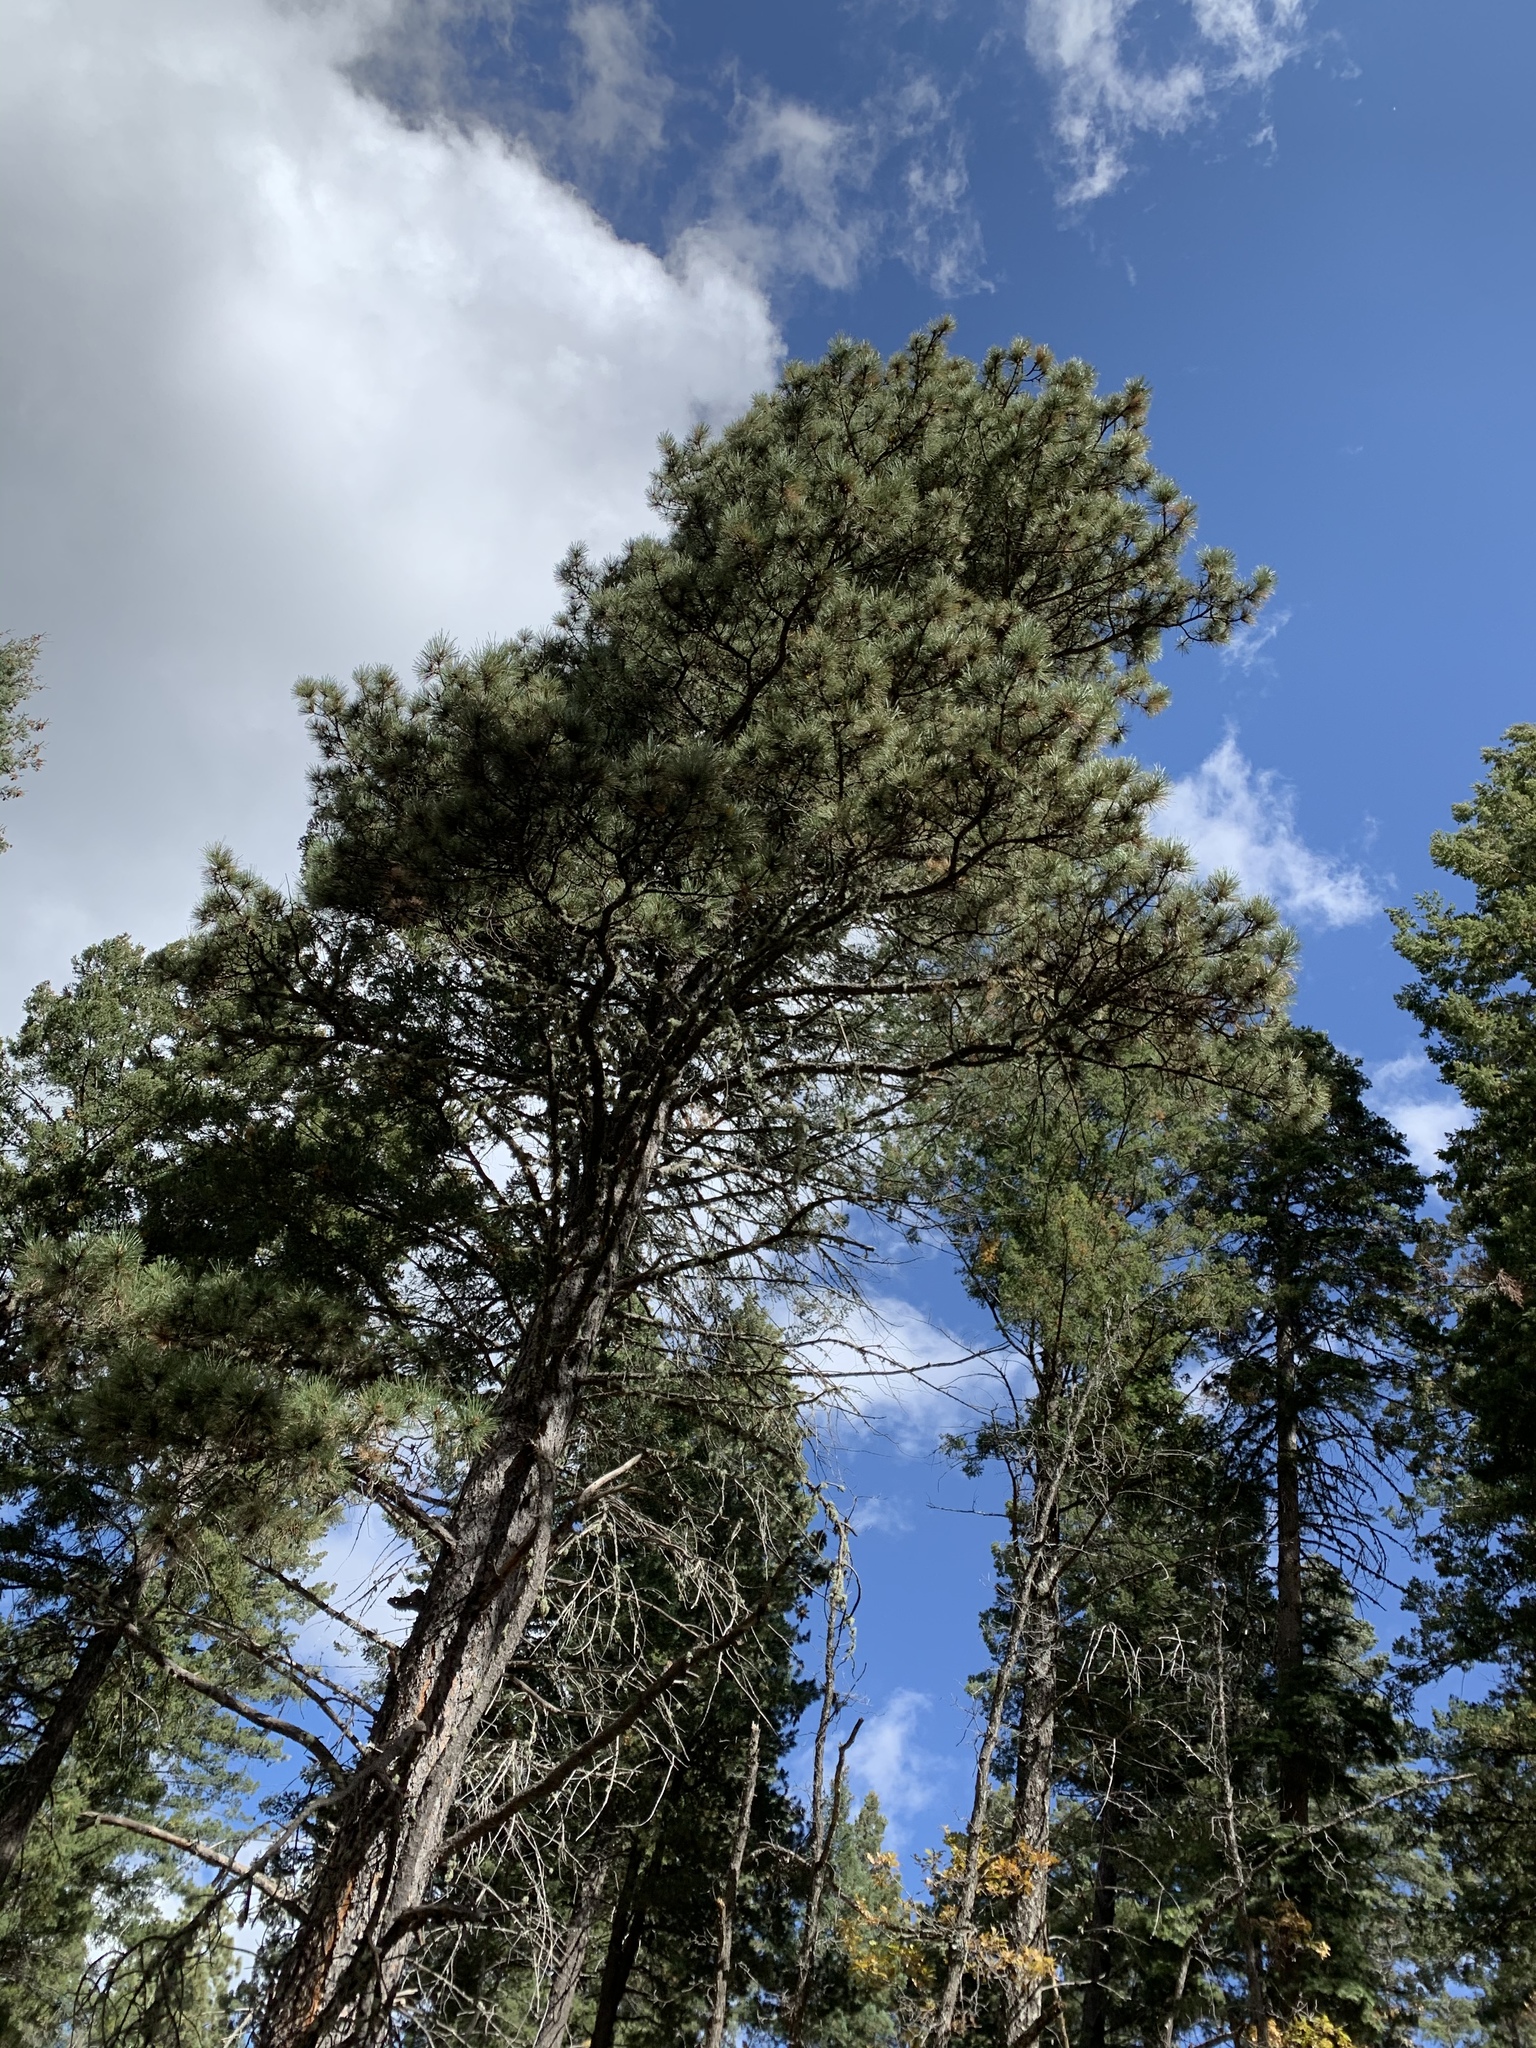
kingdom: Plantae
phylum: Tracheophyta
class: Pinopsida
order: Pinales
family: Pinaceae
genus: Pinus
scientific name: Pinus ponderosa
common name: Western yellow-pine
